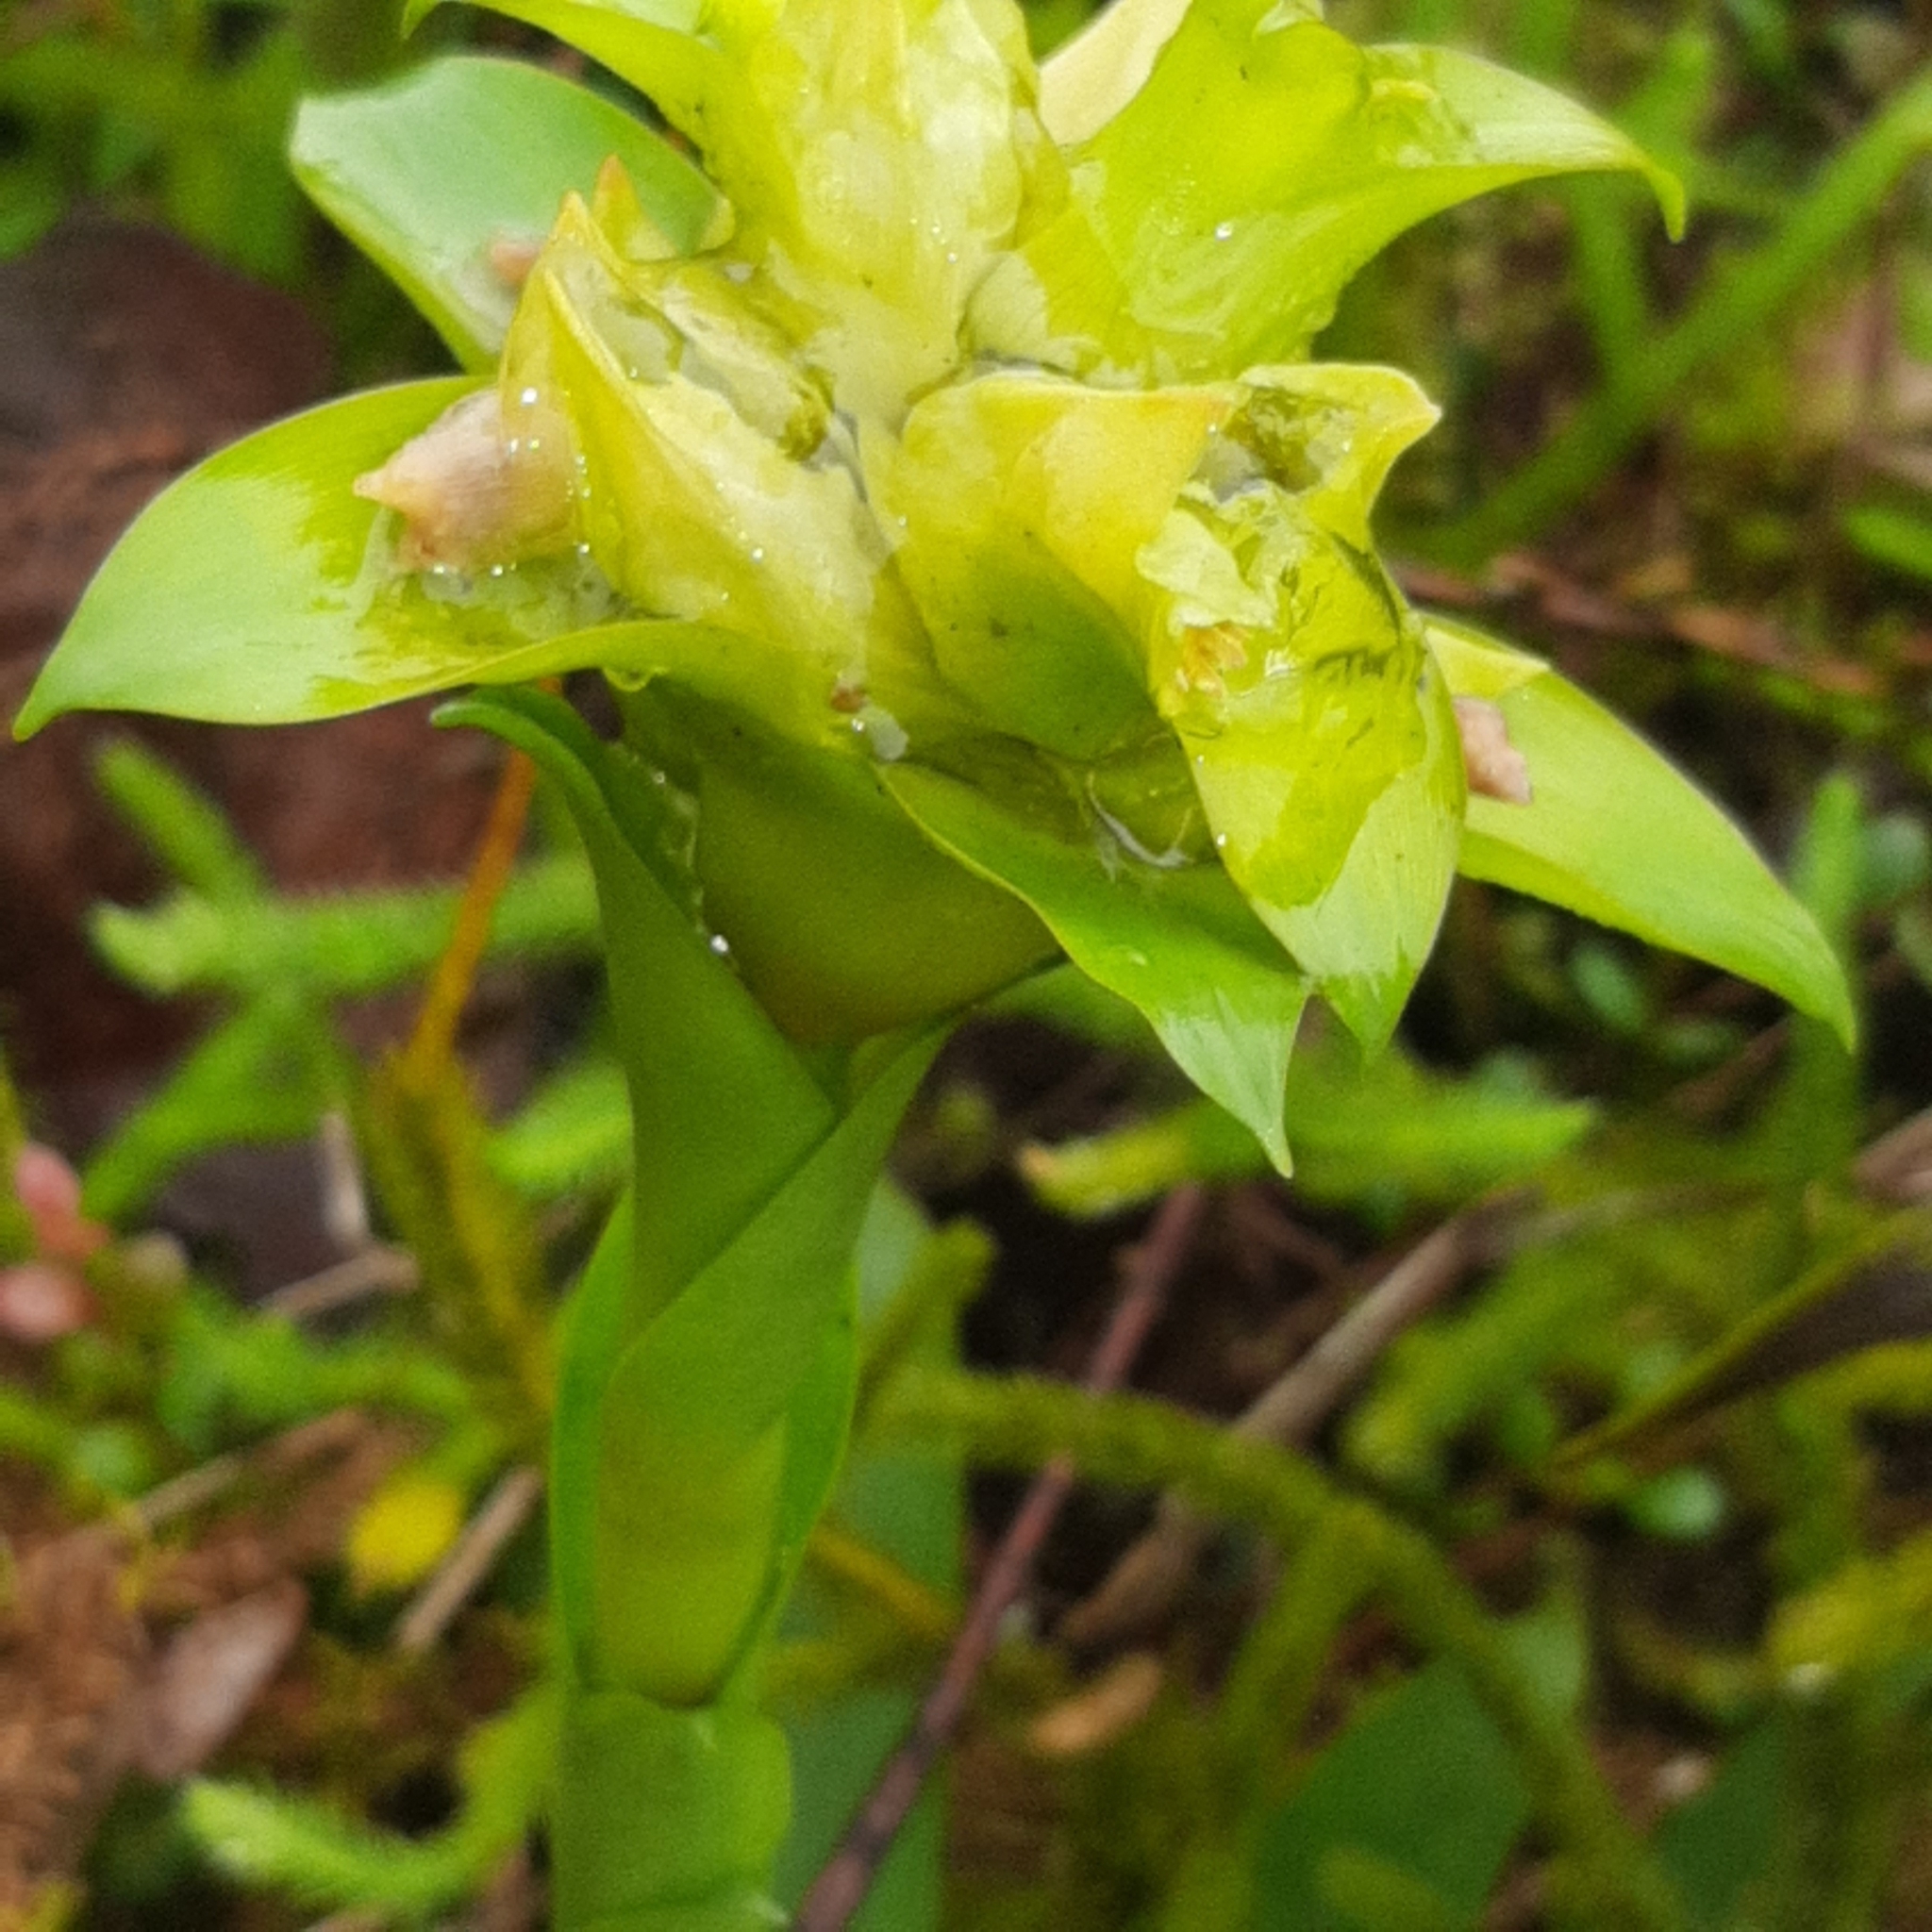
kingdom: Plantae
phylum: Tracheophyta
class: Liliopsida
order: Poales
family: Bromeliaceae
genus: Werauhia
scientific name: Werauhia notata
